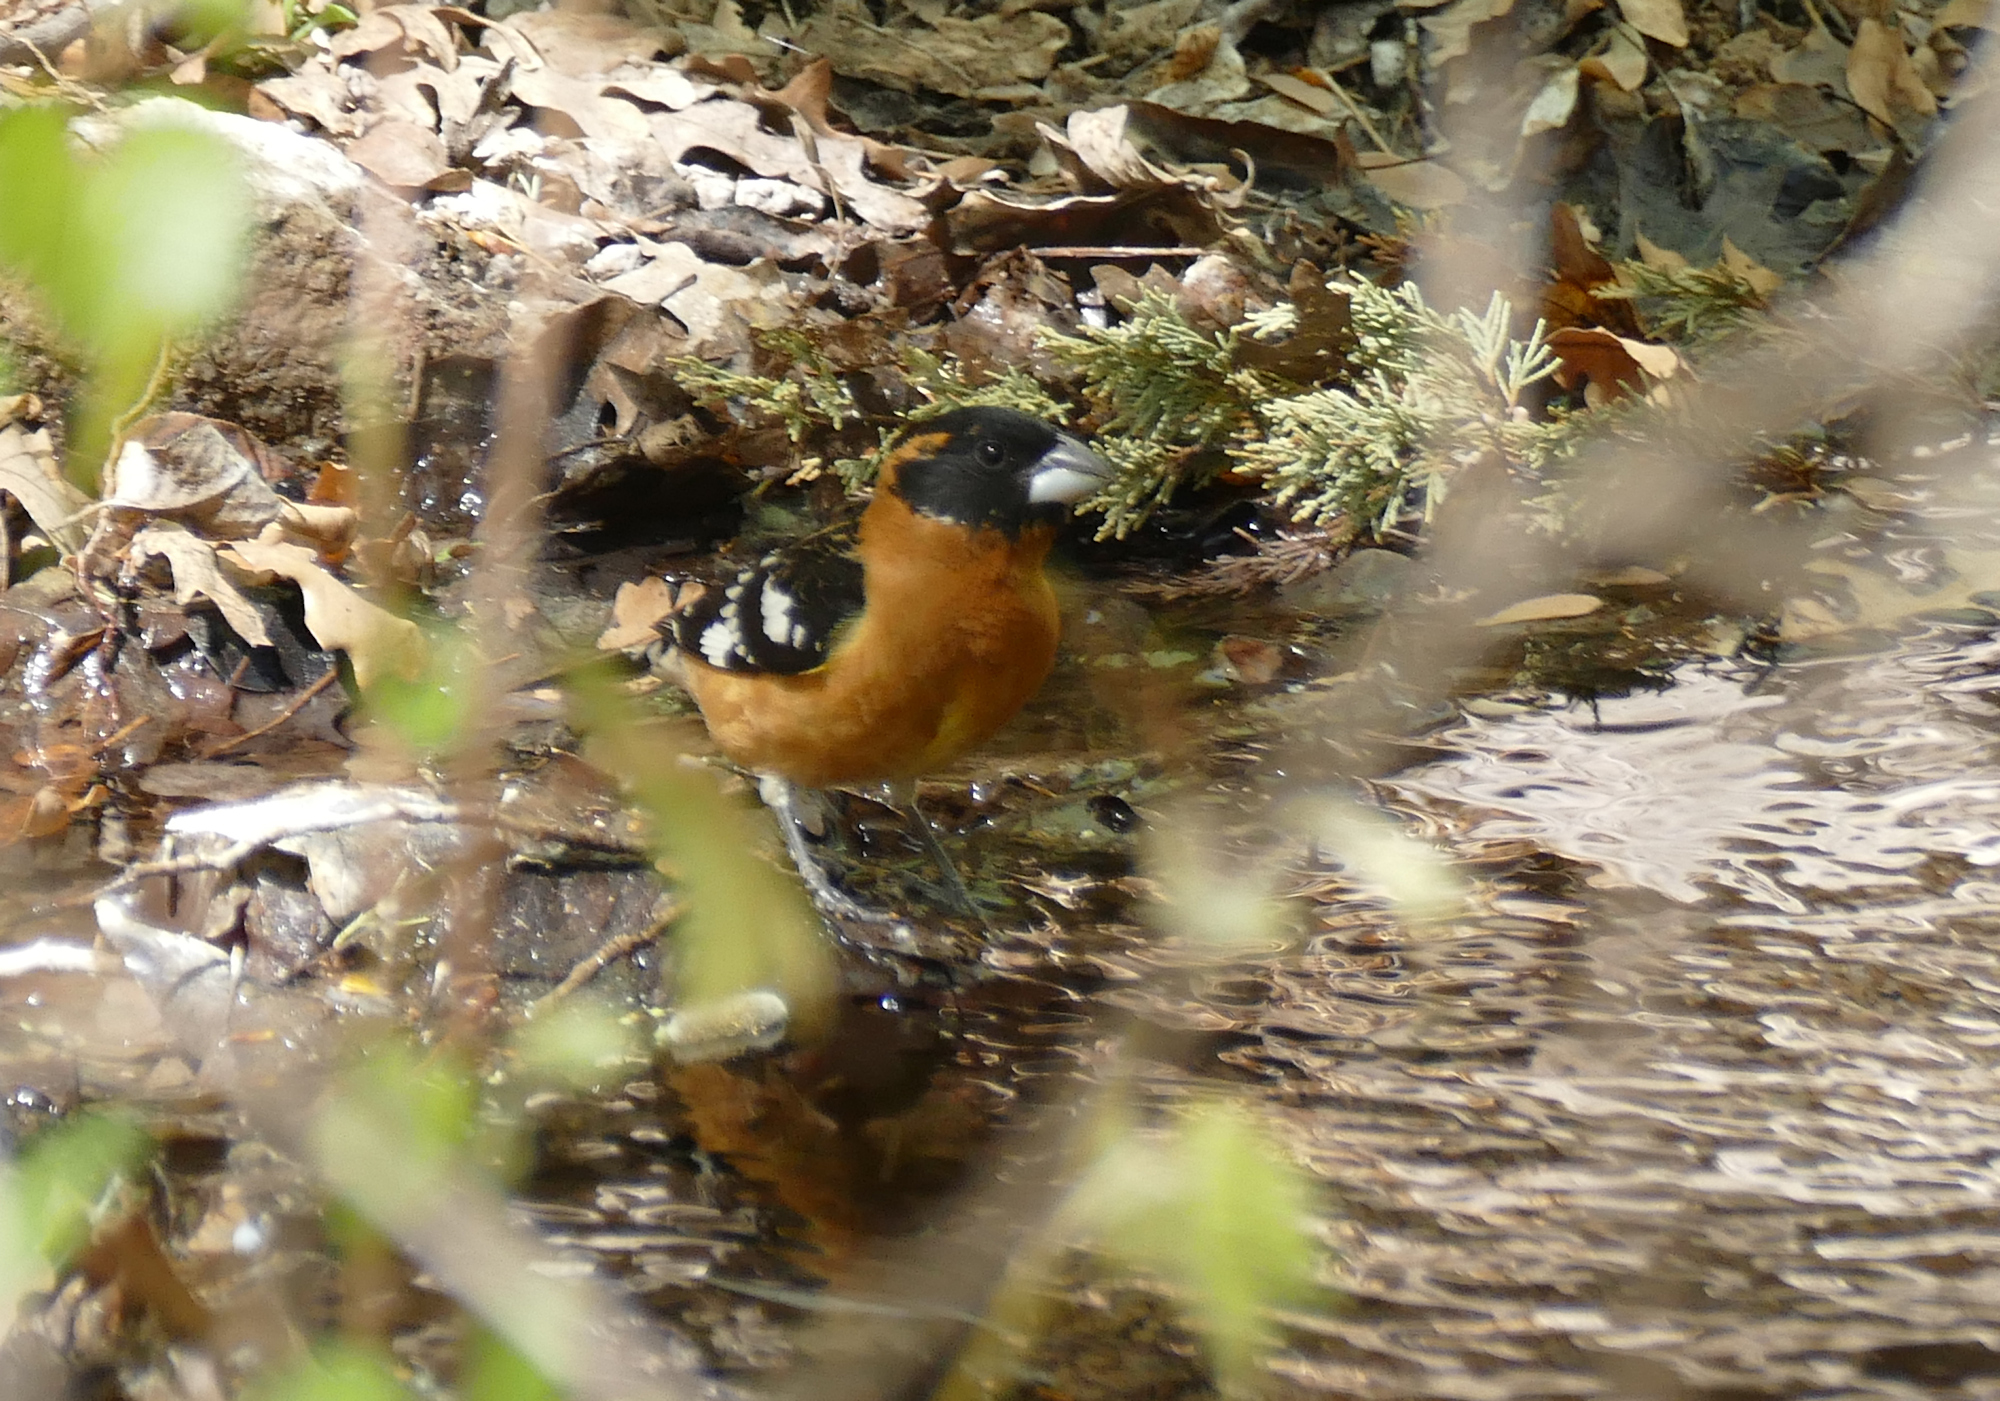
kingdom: Animalia
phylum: Chordata
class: Aves
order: Passeriformes
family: Cardinalidae
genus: Pheucticus
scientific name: Pheucticus melanocephalus
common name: Black-headed grosbeak
